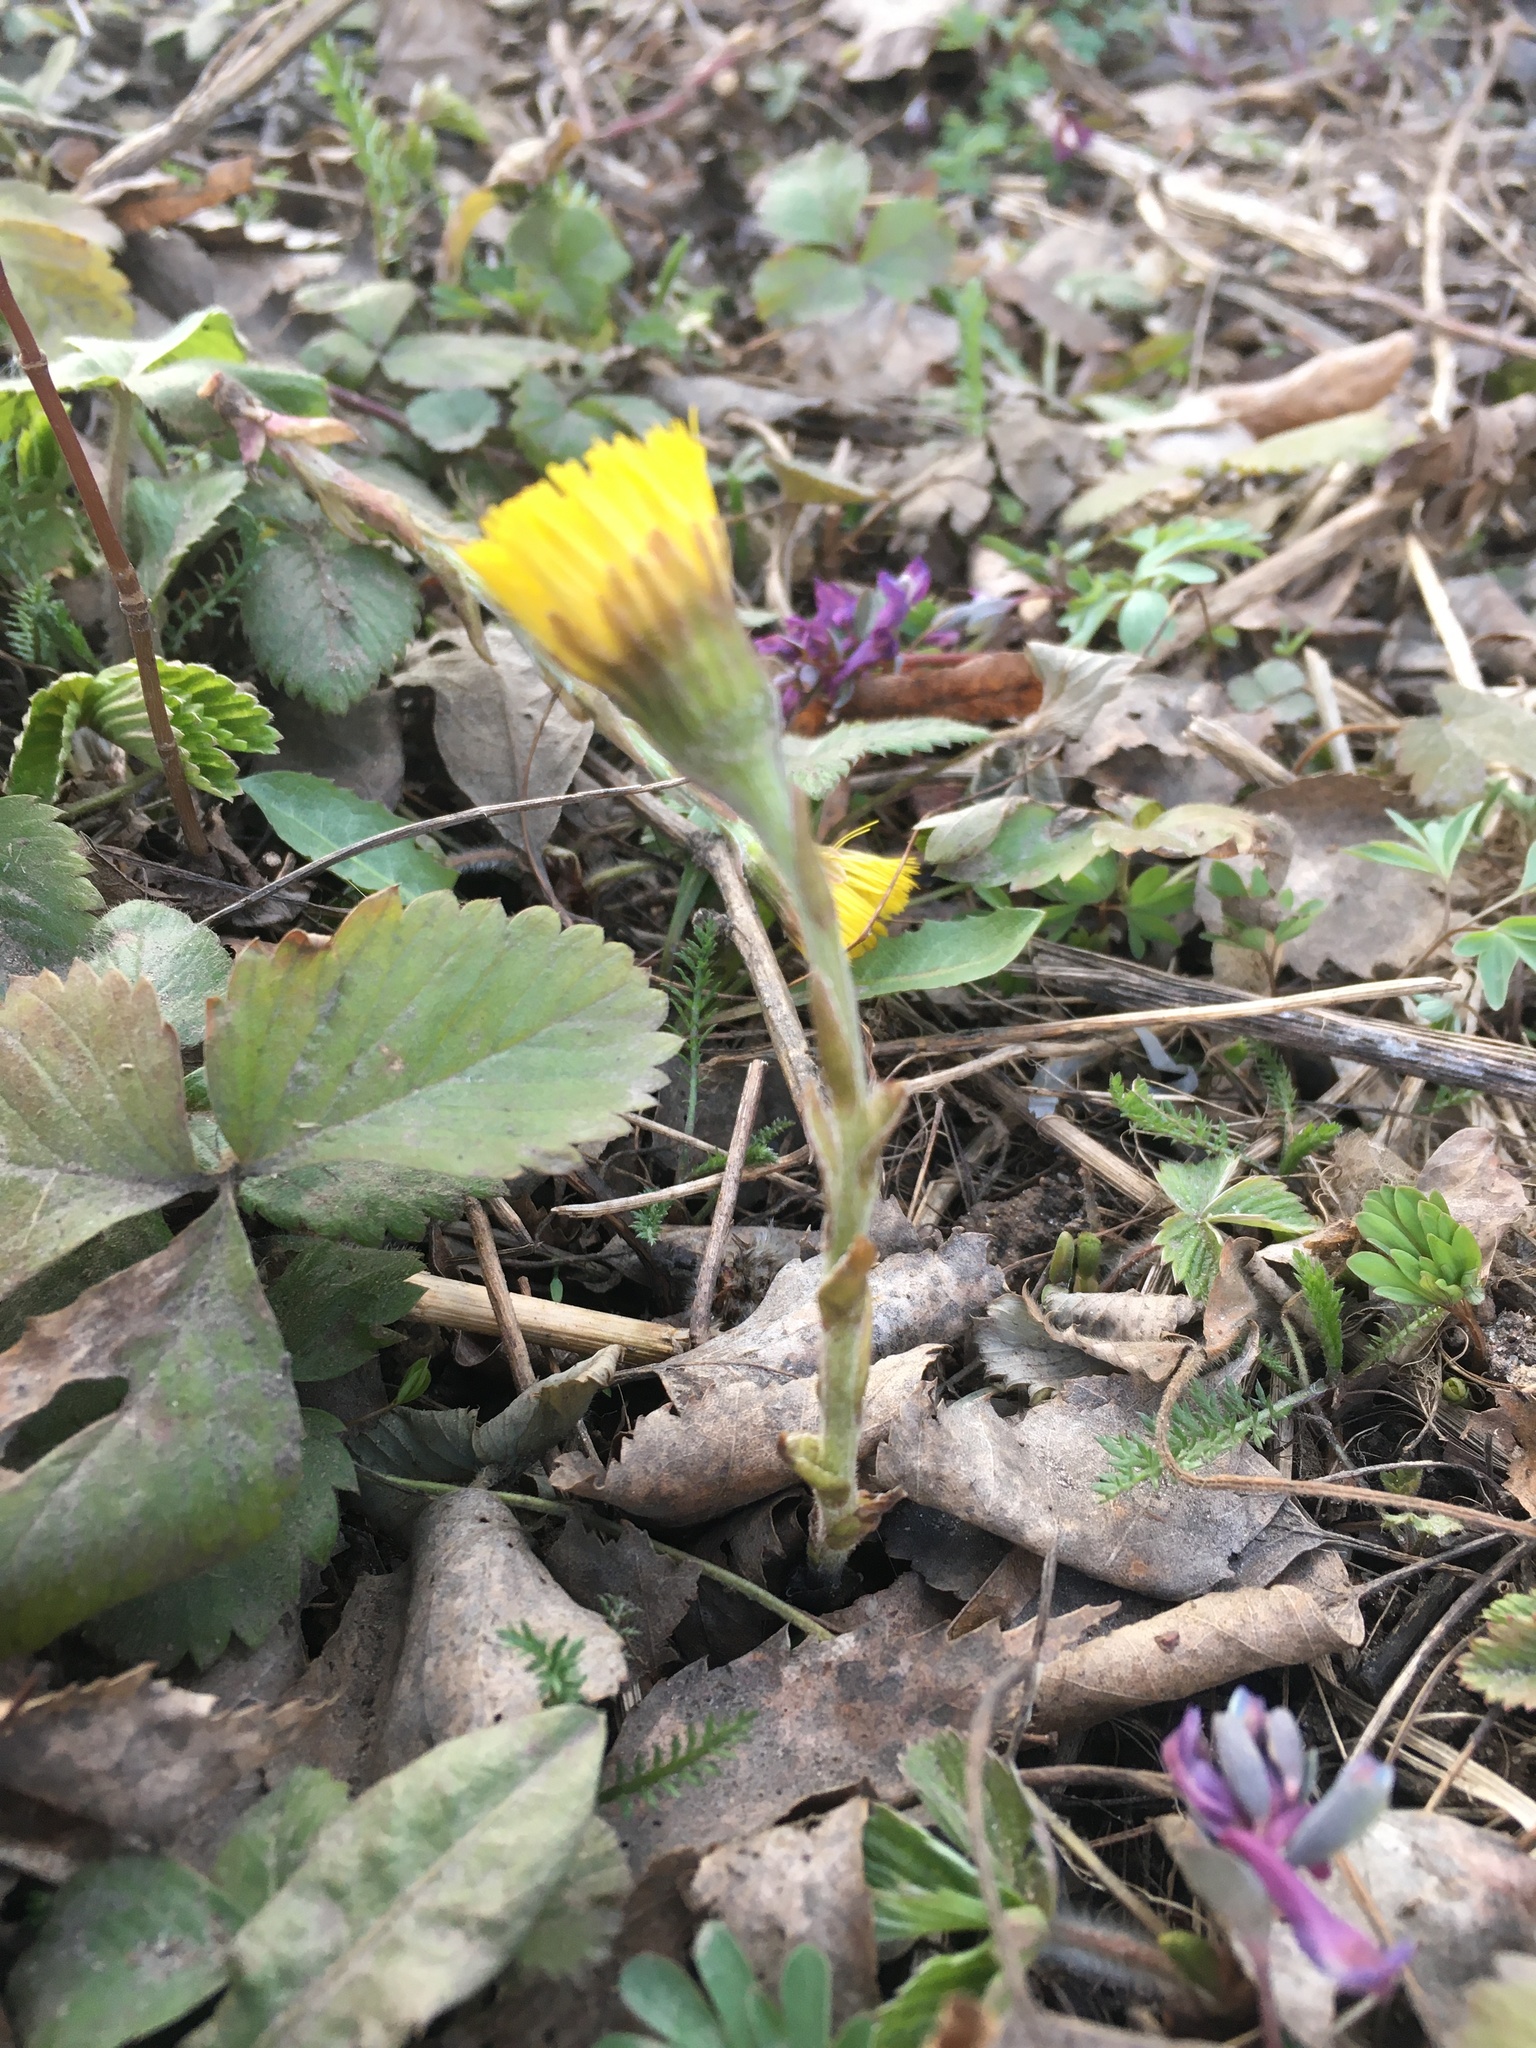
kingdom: Plantae
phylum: Tracheophyta
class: Magnoliopsida
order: Asterales
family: Asteraceae
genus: Tussilago
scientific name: Tussilago farfara
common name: Coltsfoot
